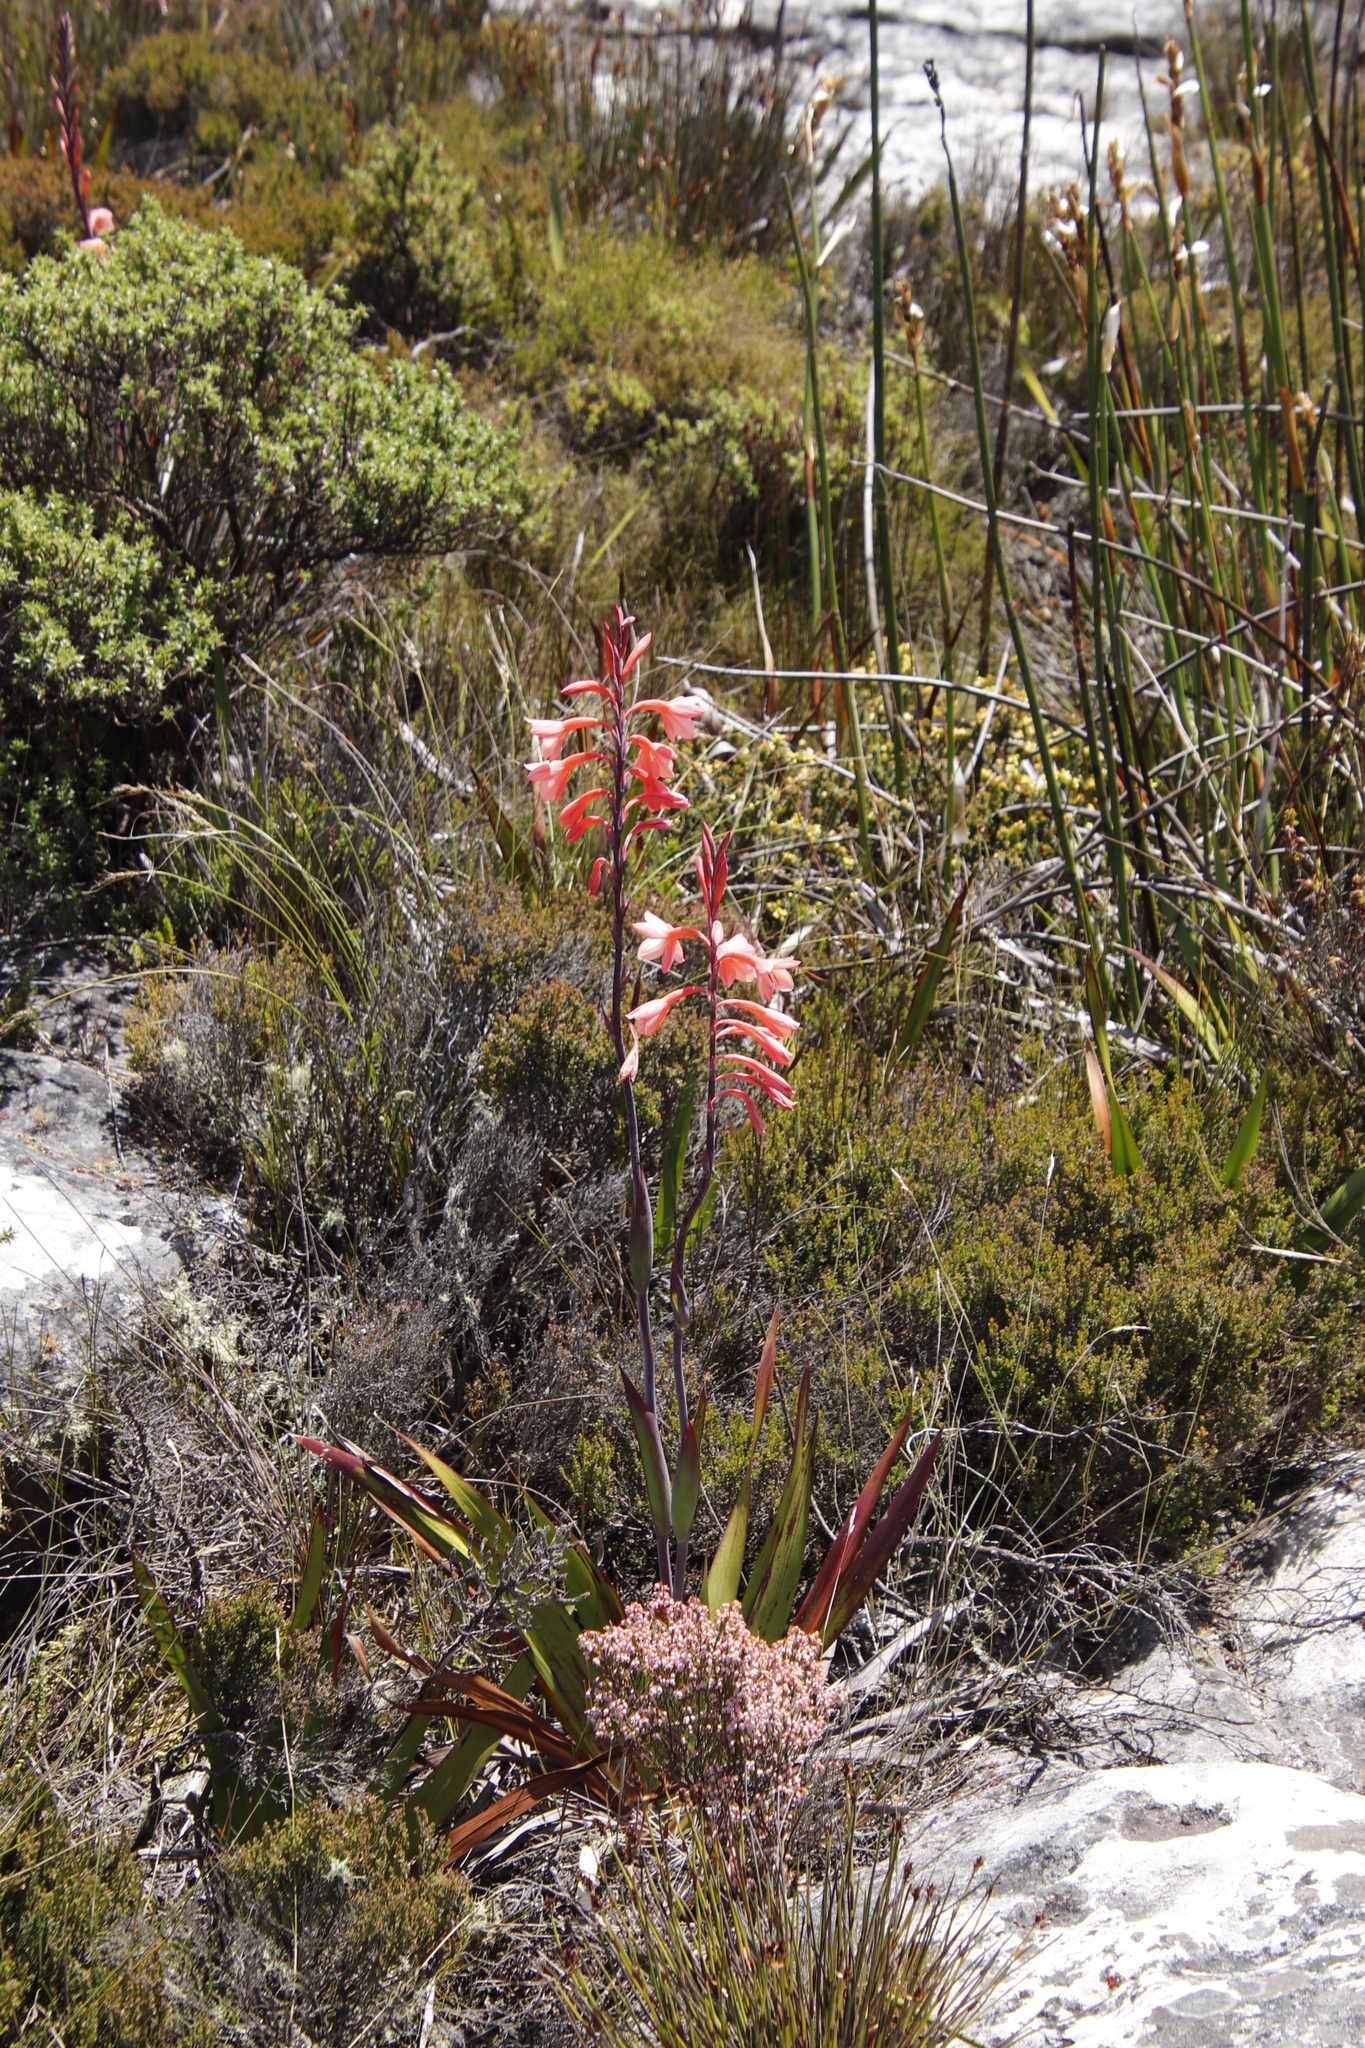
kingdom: Plantae
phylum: Tracheophyta
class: Liliopsida
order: Asparagales
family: Iridaceae
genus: Watsonia
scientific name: Watsonia tabularis
